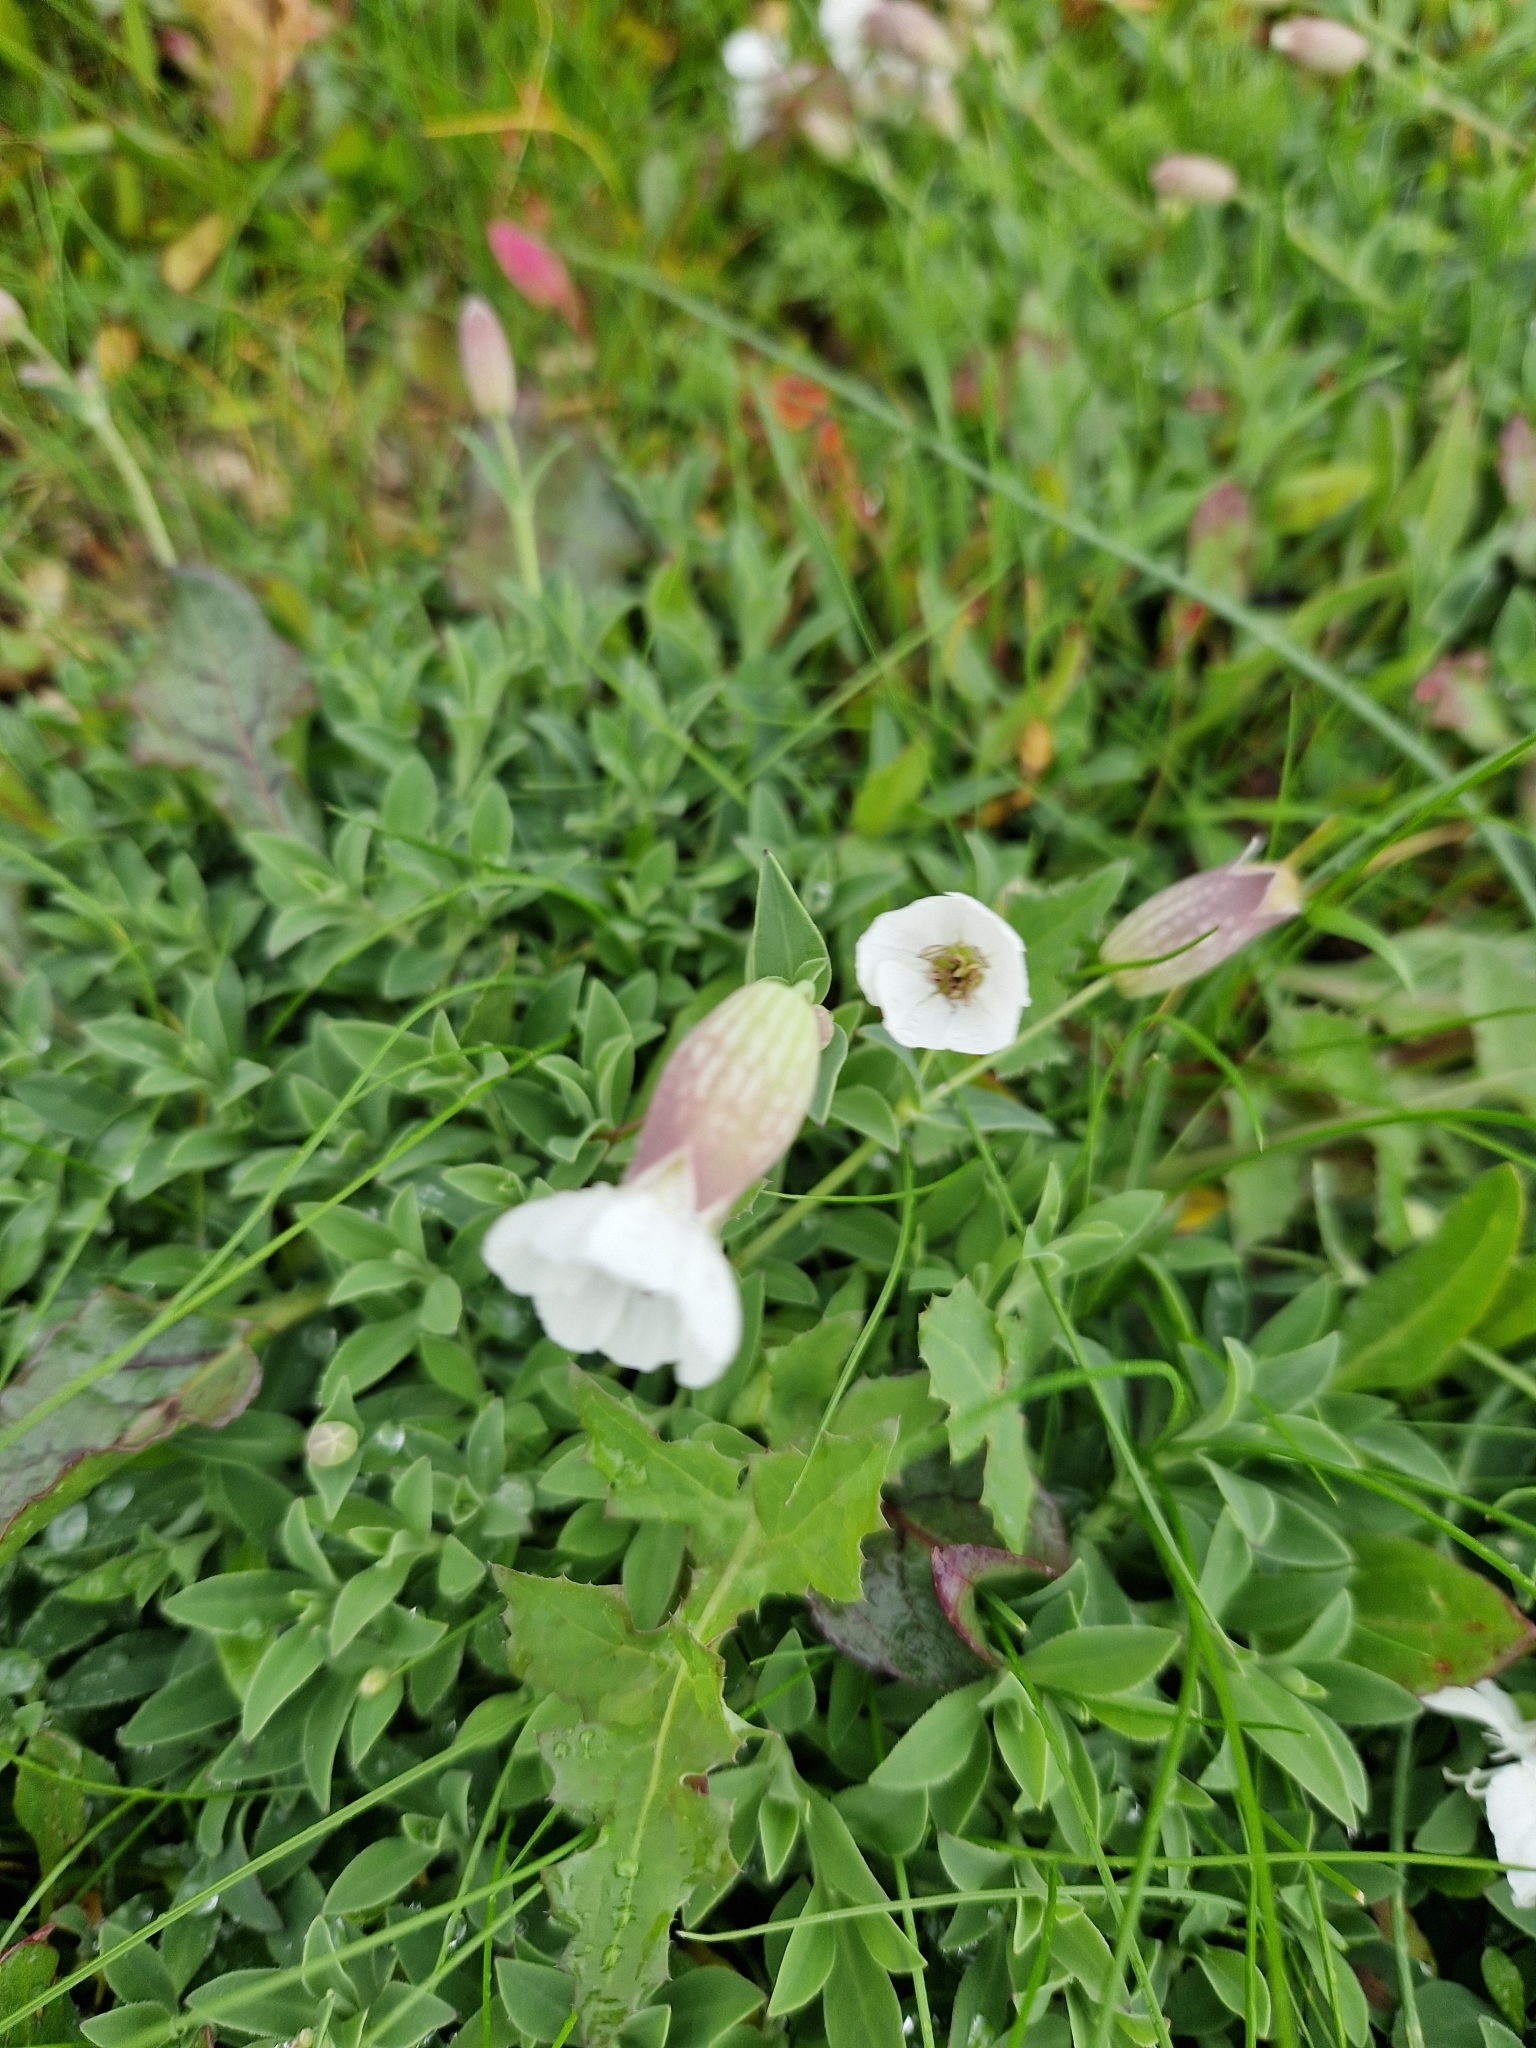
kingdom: Plantae
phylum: Tracheophyta
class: Magnoliopsida
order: Caryophyllales
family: Caryophyllaceae
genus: Silene
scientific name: Silene uniflora
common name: Sea campion
